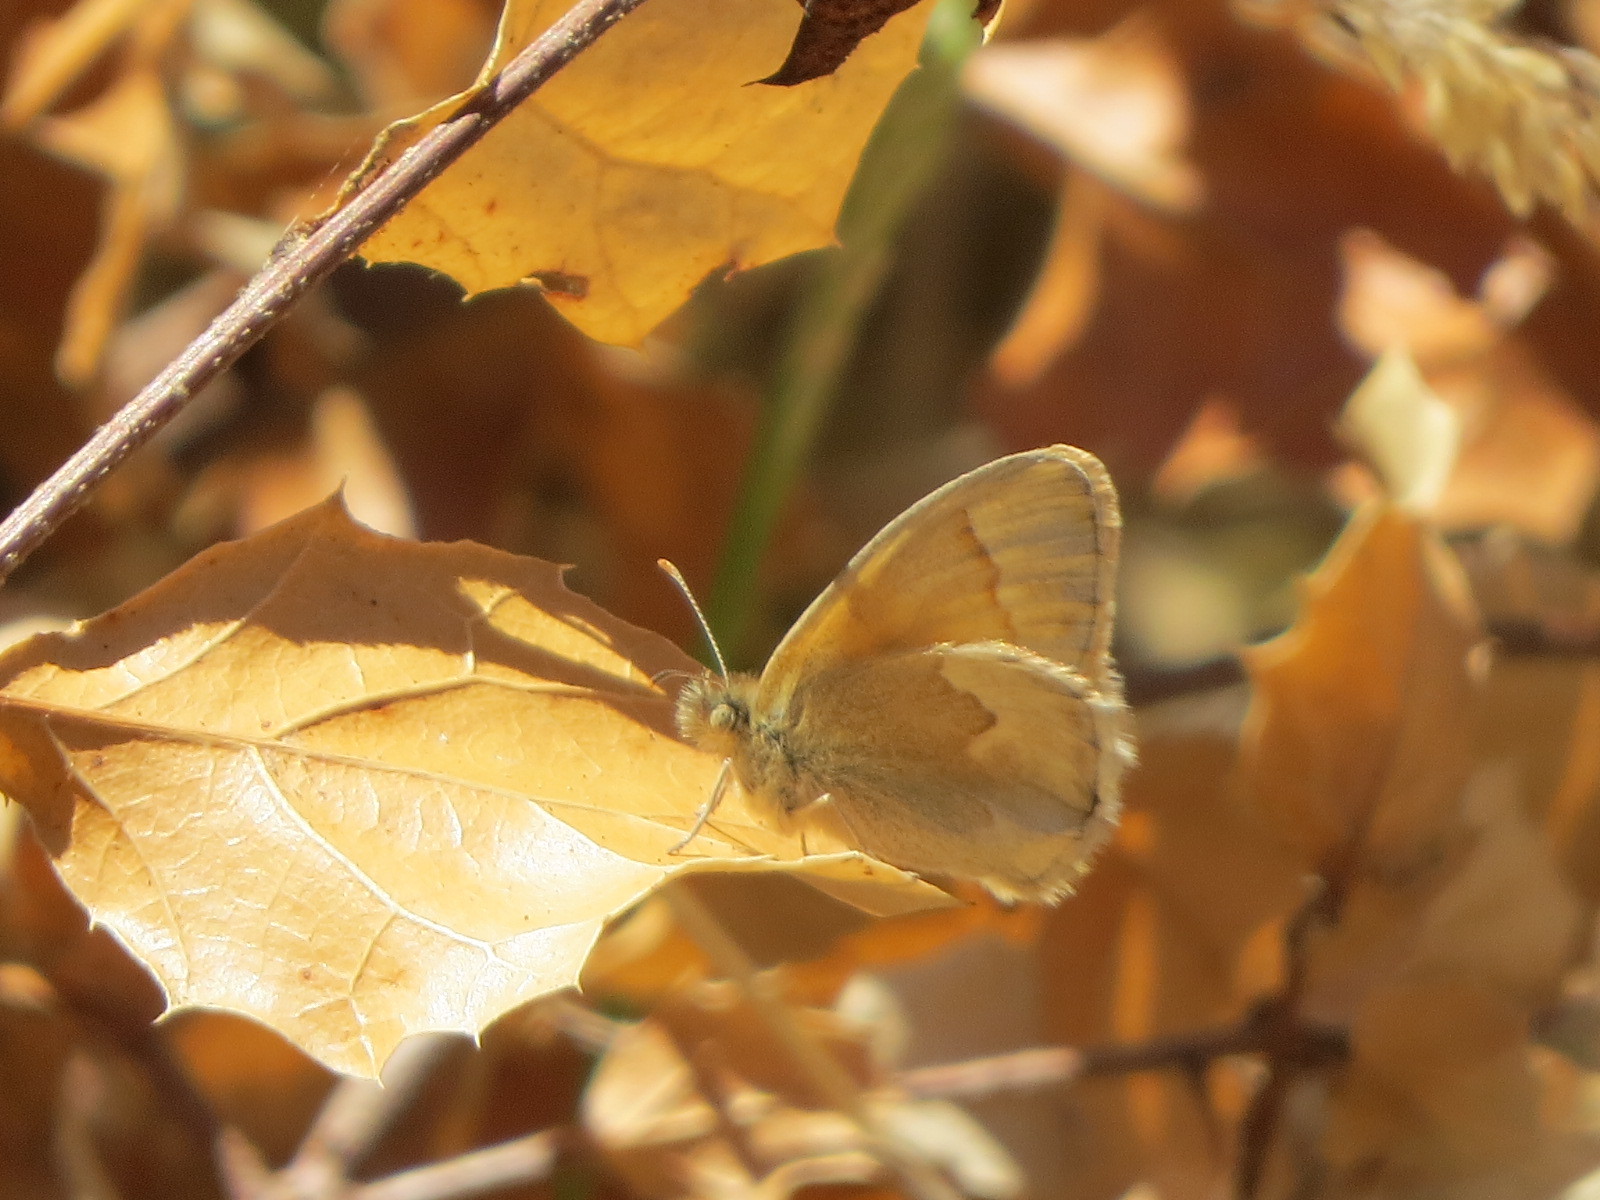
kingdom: Animalia
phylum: Arthropoda
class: Insecta
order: Lepidoptera
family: Nymphalidae
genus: Coenonympha
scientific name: Coenonympha california
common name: Common ringlet
